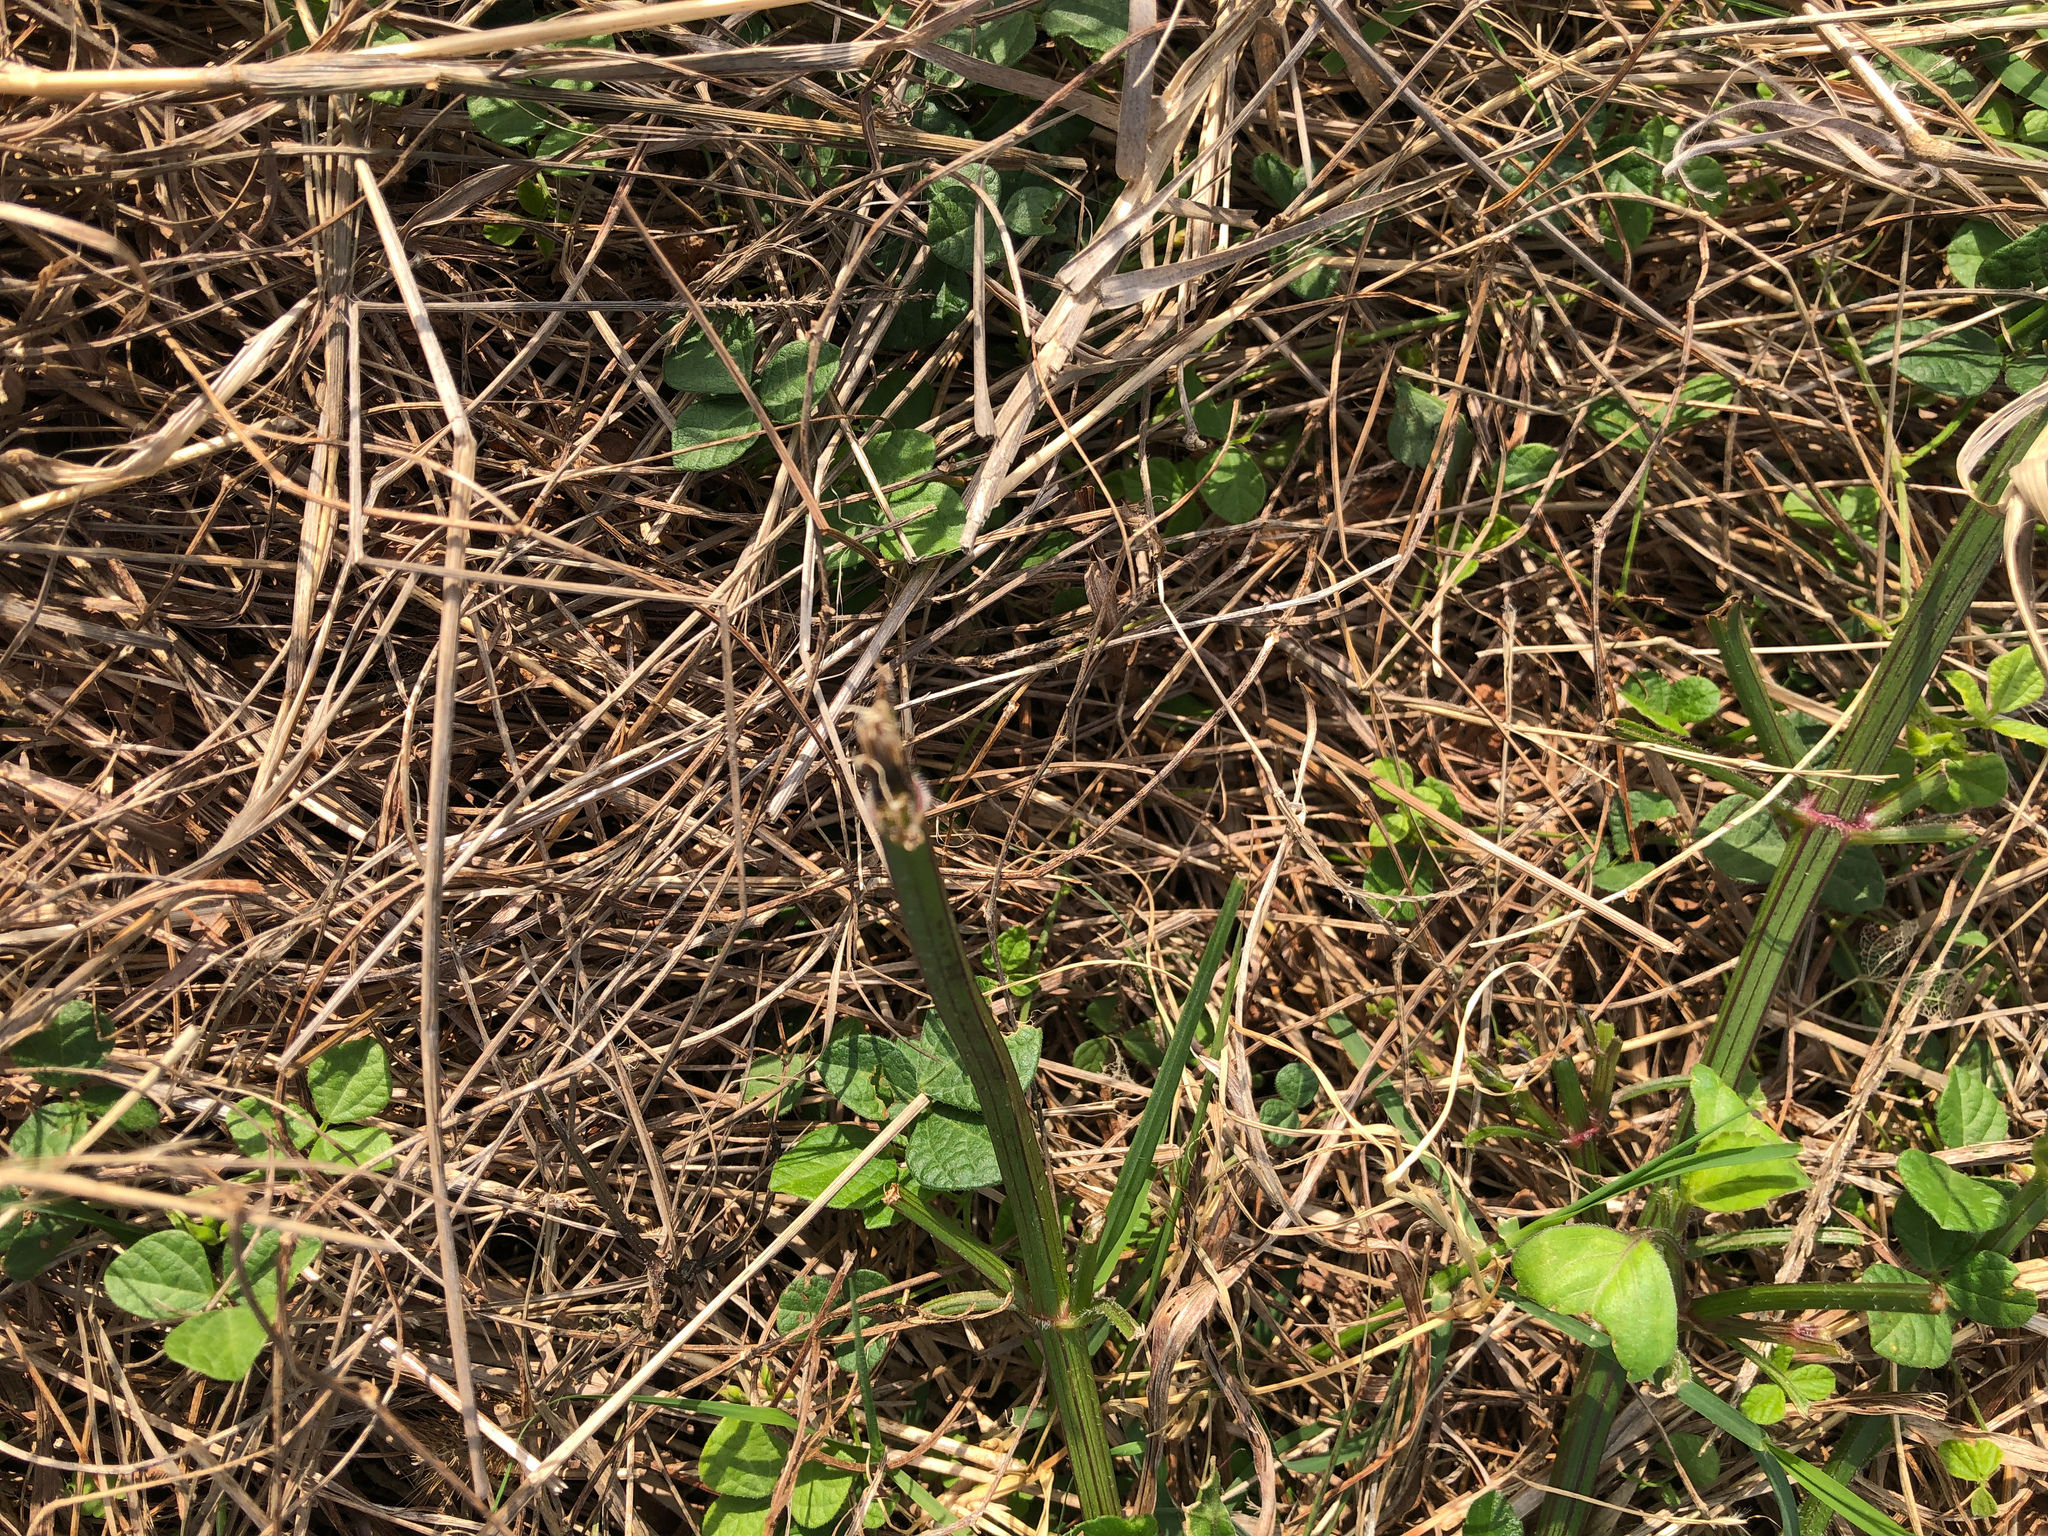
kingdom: Plantae
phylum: Tracheophyta
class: Magnoliopsida
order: Asterales
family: Asteraceae
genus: Bidens
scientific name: Bidens alba
